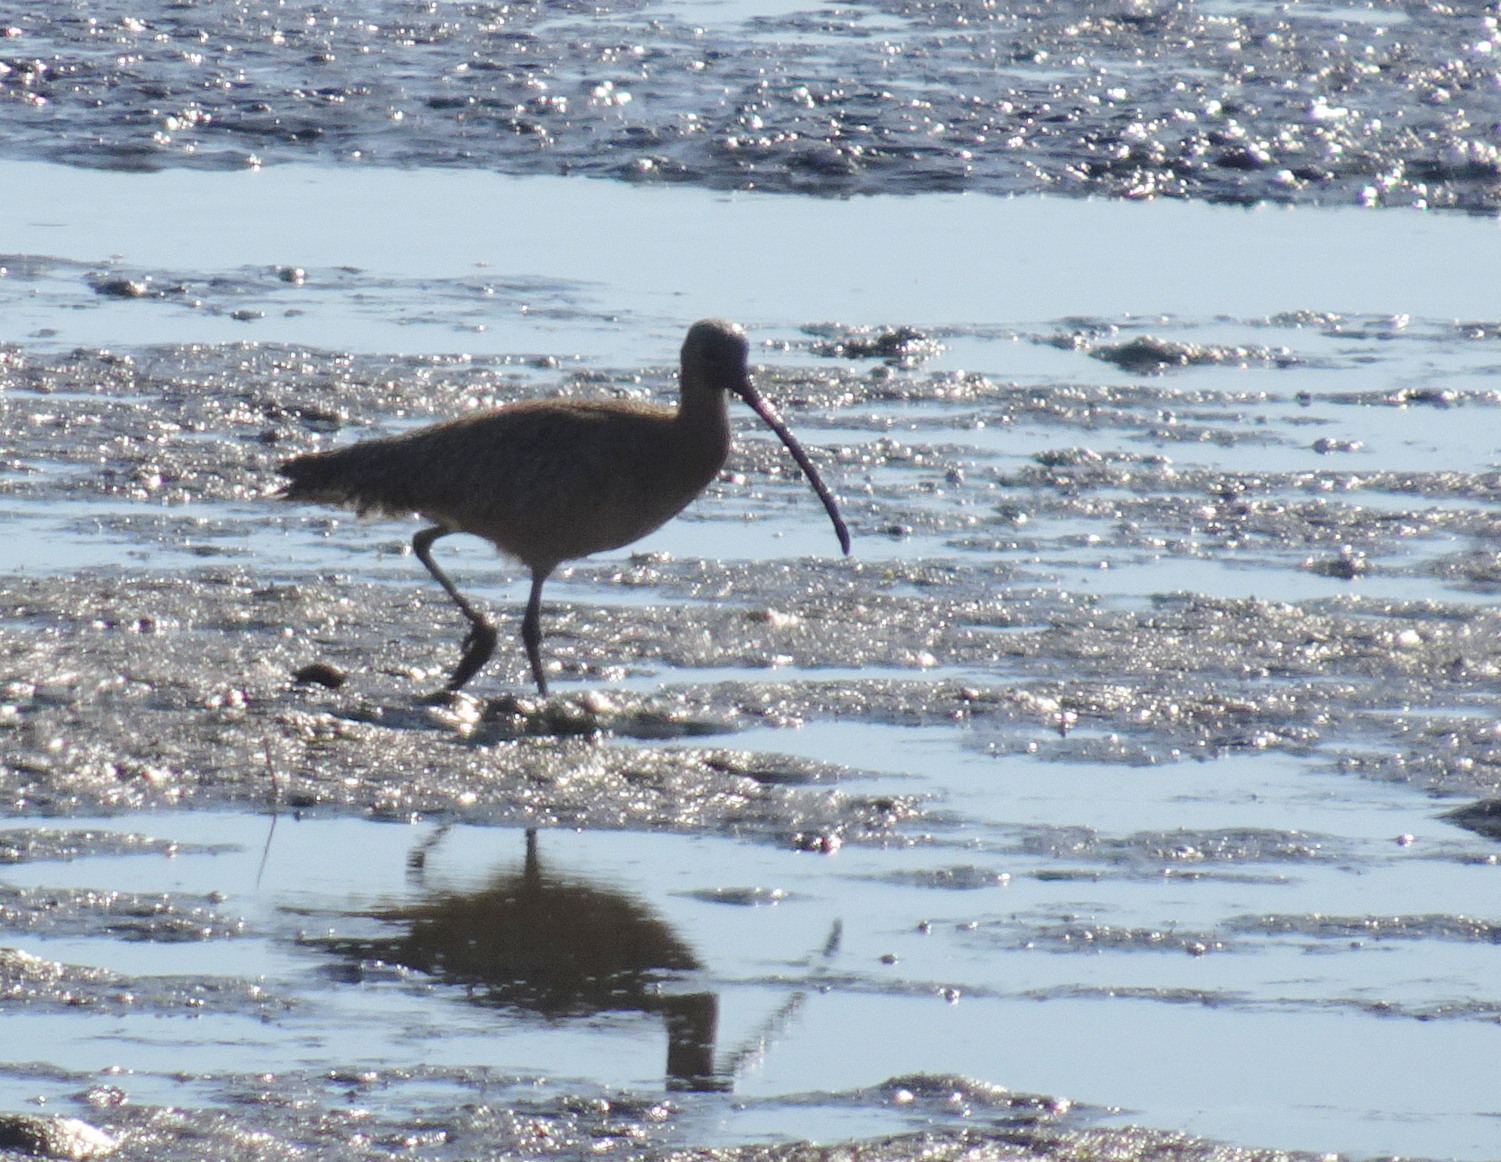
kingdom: Animalia
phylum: Chordata
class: Aves
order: Charadriiformes
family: Scolopacidae
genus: Numenius
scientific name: Numenius americanus
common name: Long-billed curlew
